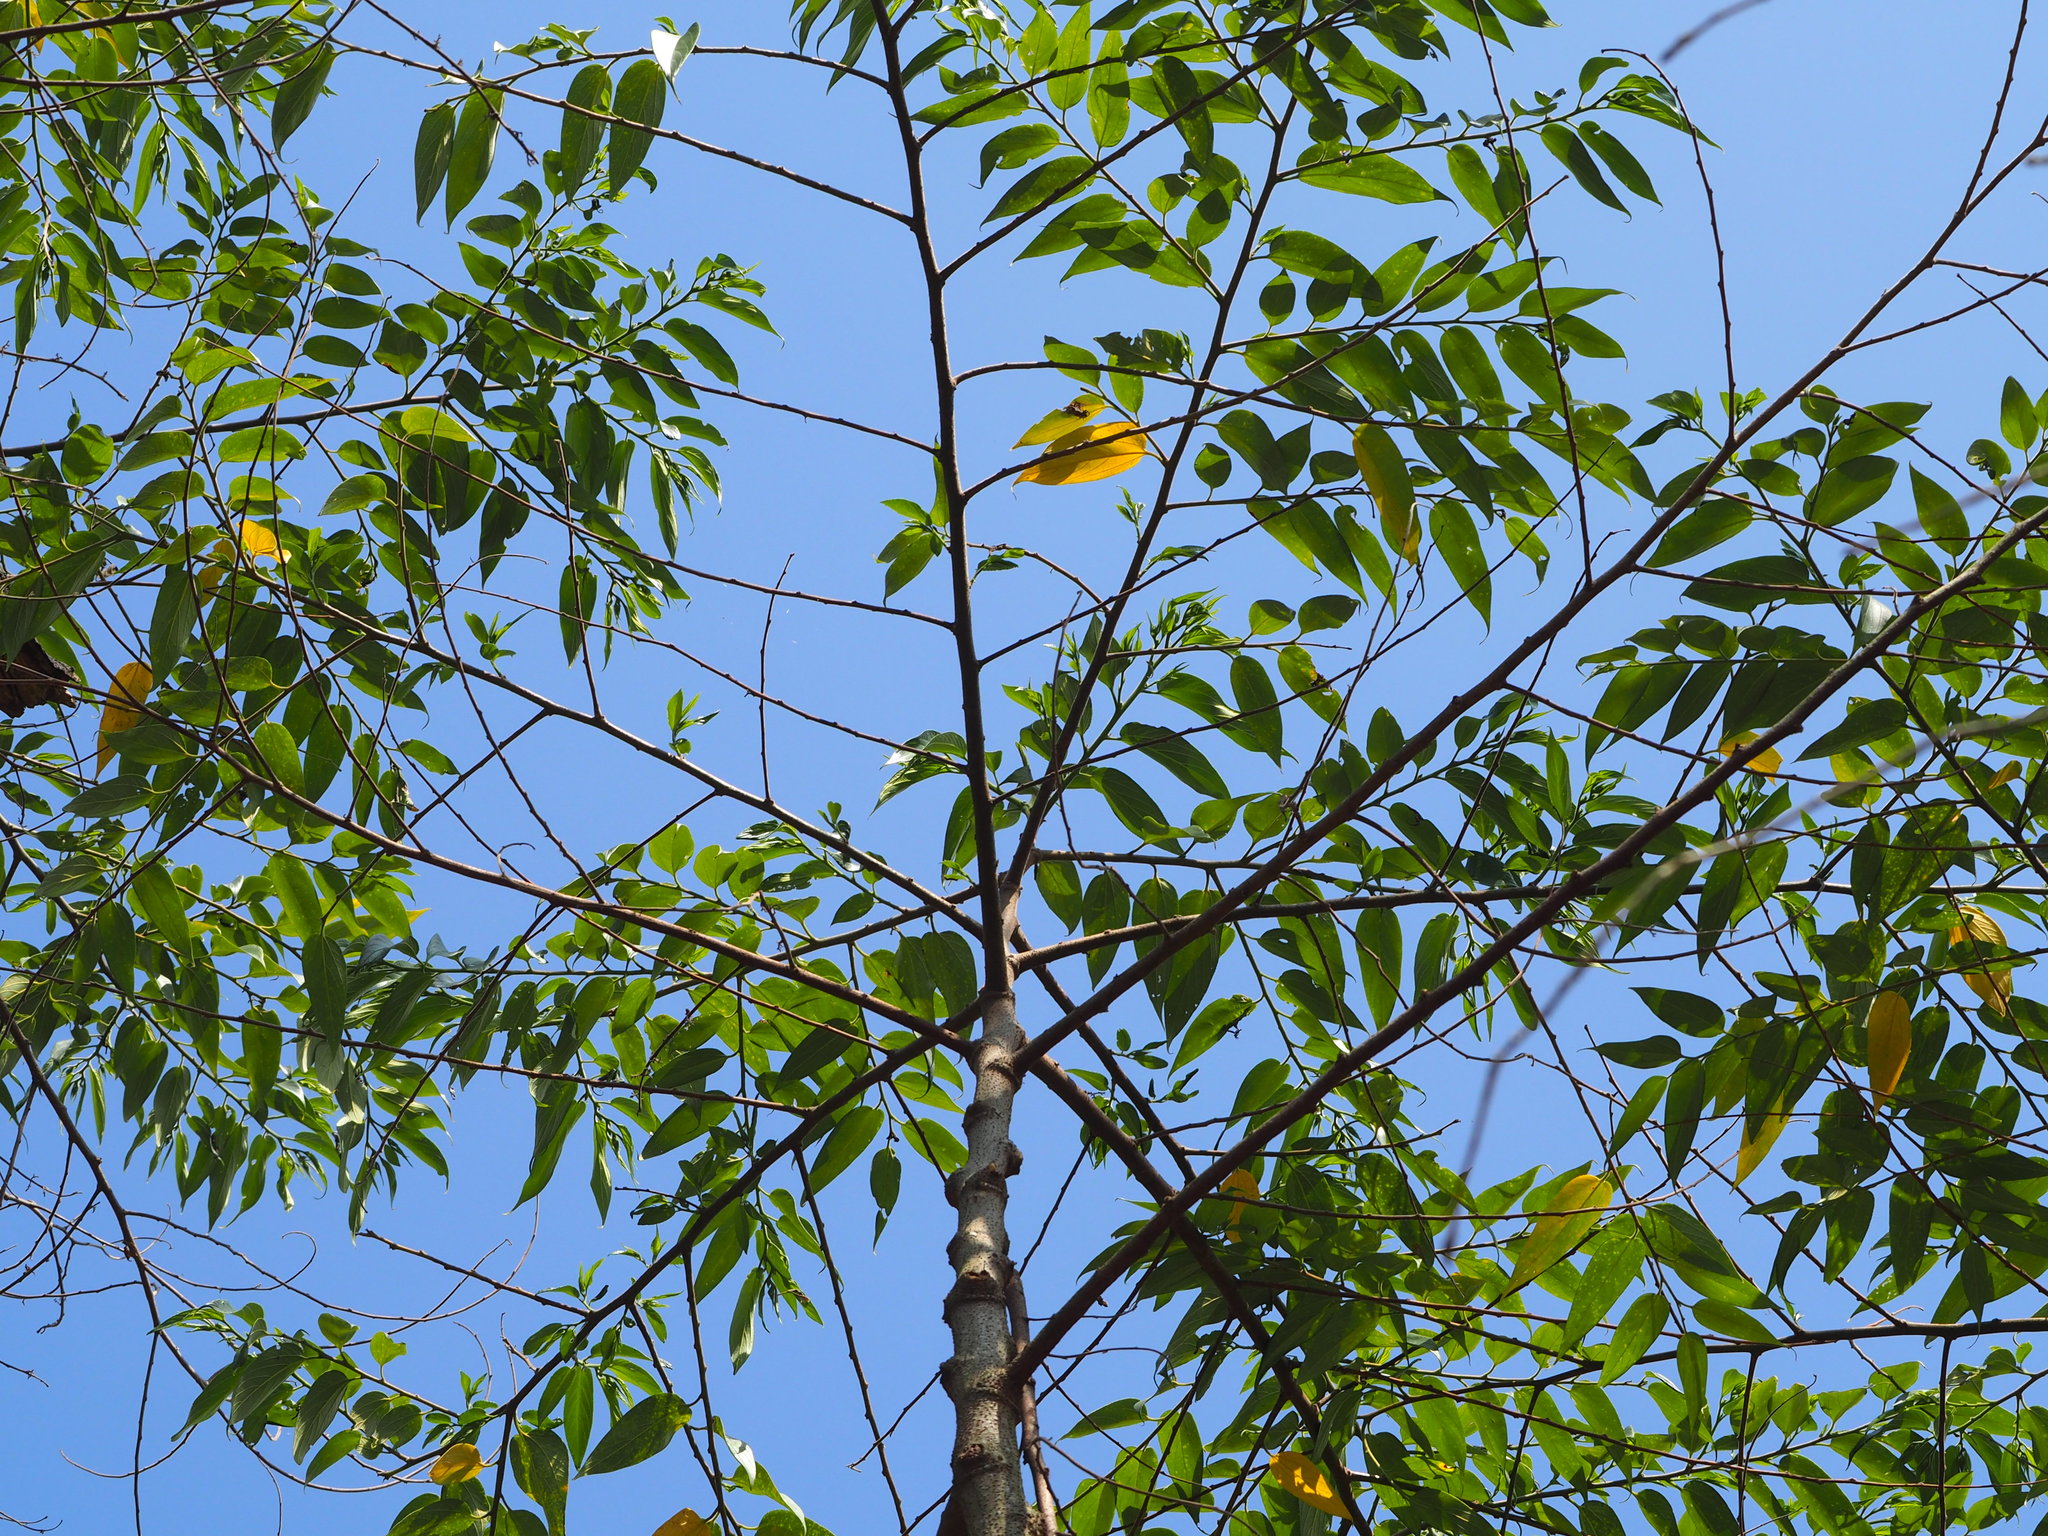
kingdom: Plantae
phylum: Tracheophyta
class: Magnoliopsida
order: Rosales
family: Cannabaceae
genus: Trema
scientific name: Trema orientale
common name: Indian charcoal tree
